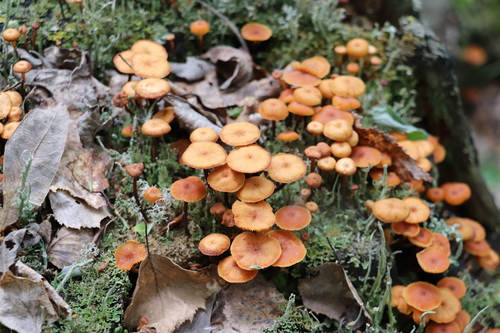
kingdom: Fungi
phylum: Basidiomycota
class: Agaricomycetes
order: Agaricales
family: Mycenaceae
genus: Xeromphalina
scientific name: Xeromphalina campanella
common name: Pinewood gingertail
